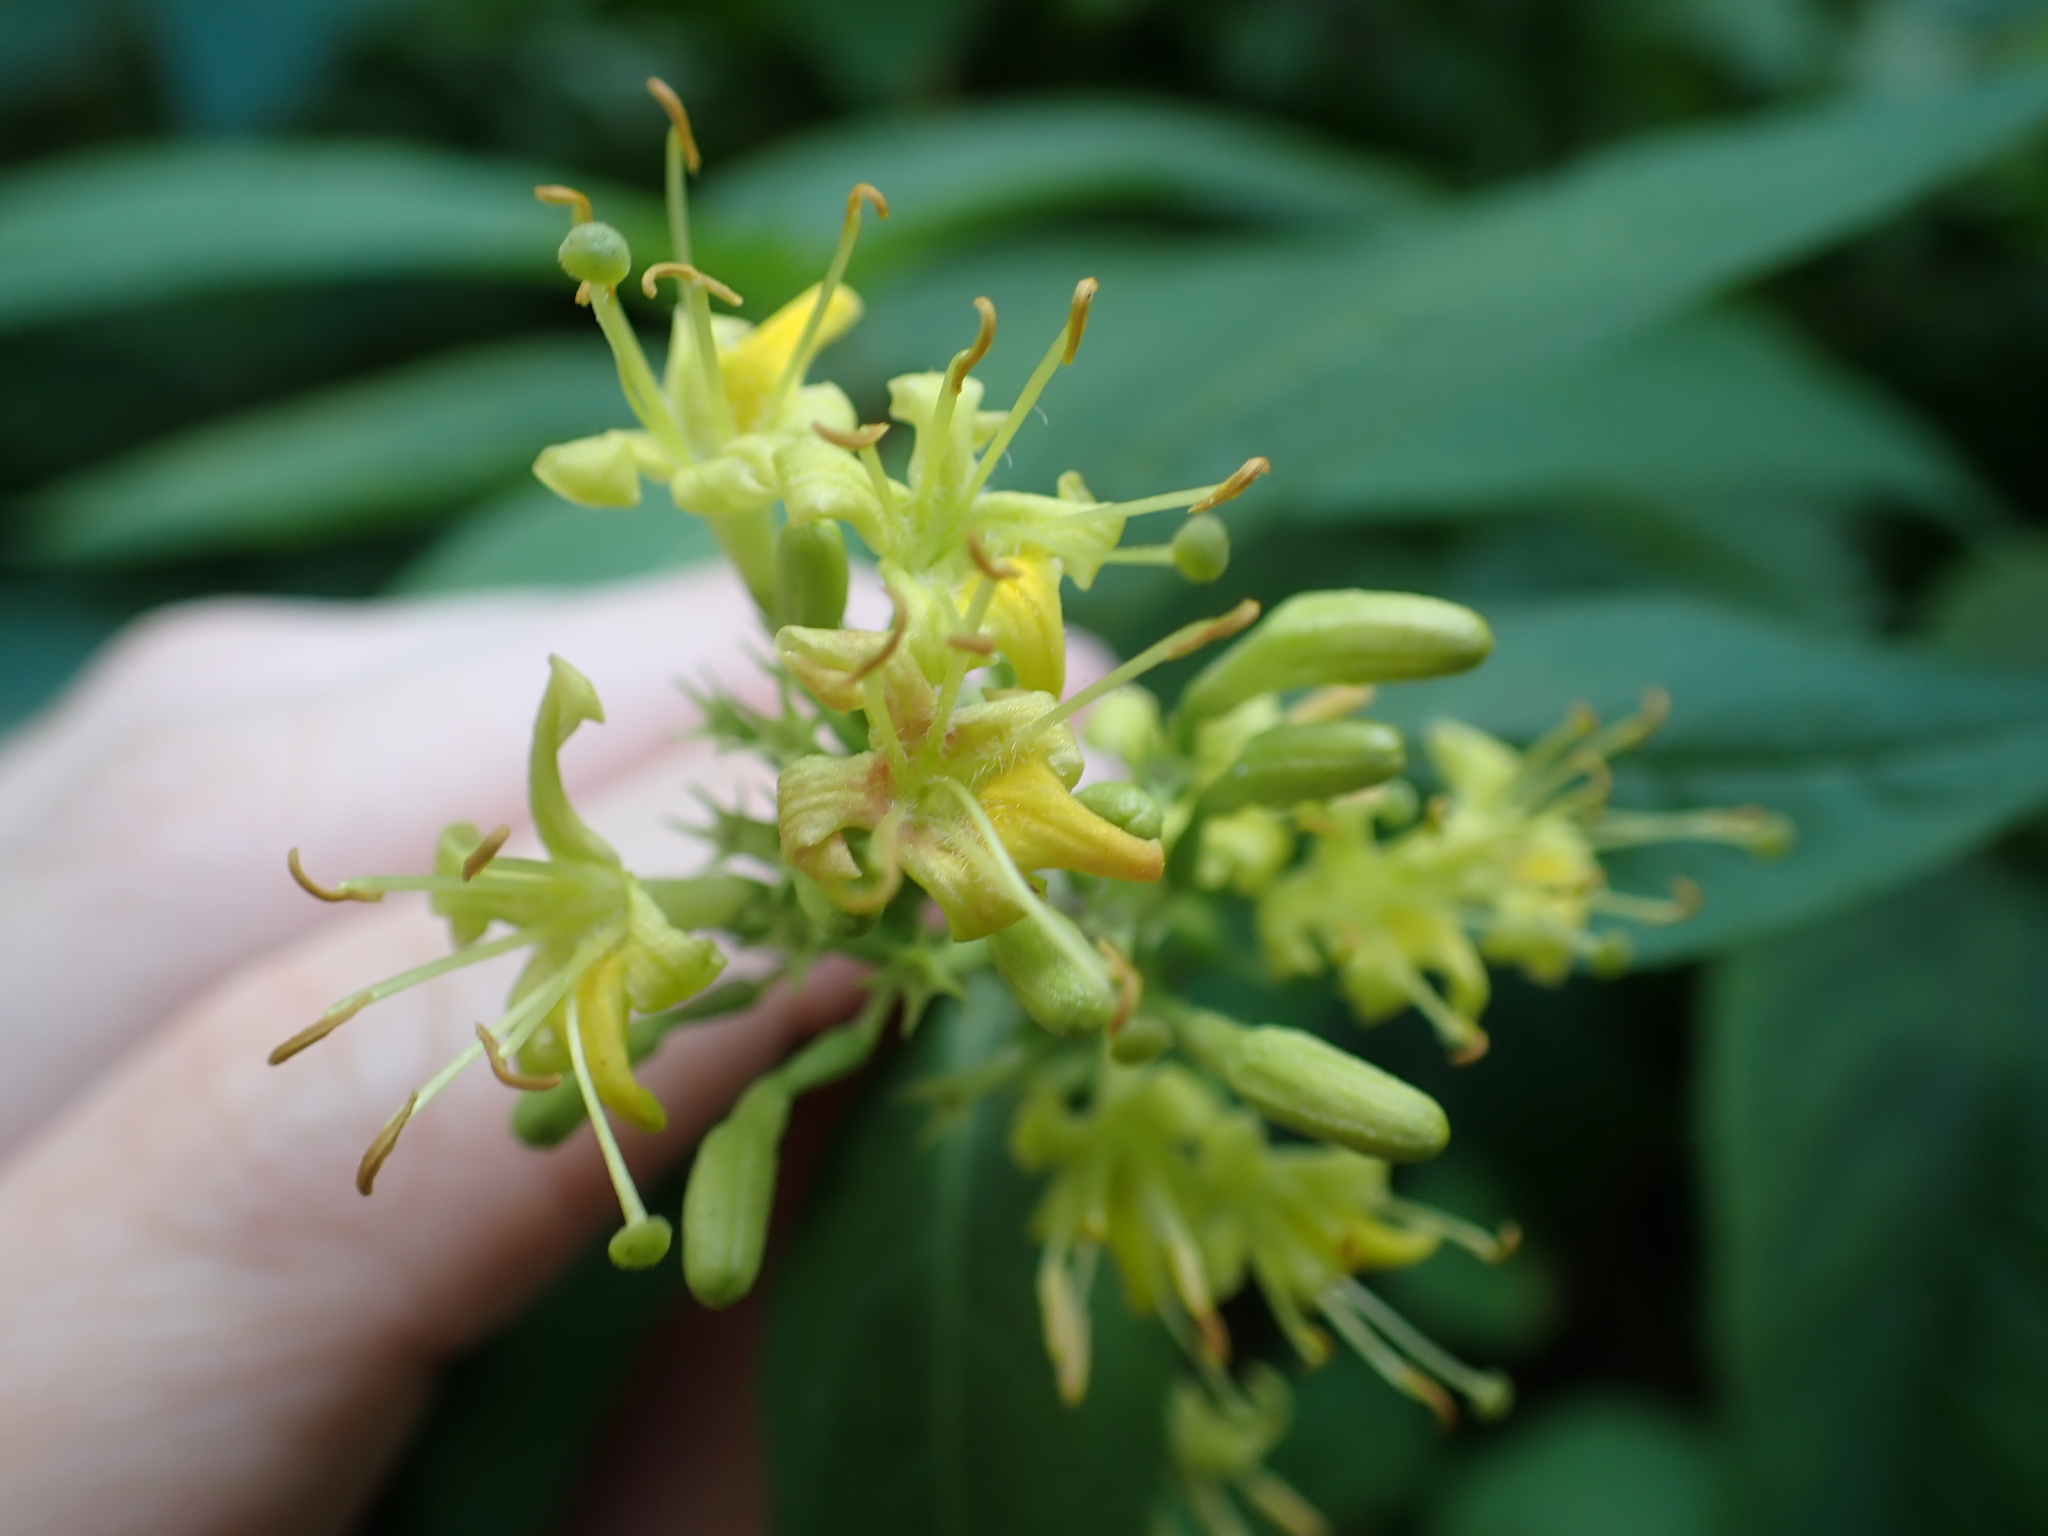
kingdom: Plantae
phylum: Tracheophyta
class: Magnoliopsida
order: Dipsacales
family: Caprifoliaceae
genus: Diervilla
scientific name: Diervilla lonicera
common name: Bush-honeysuckle
